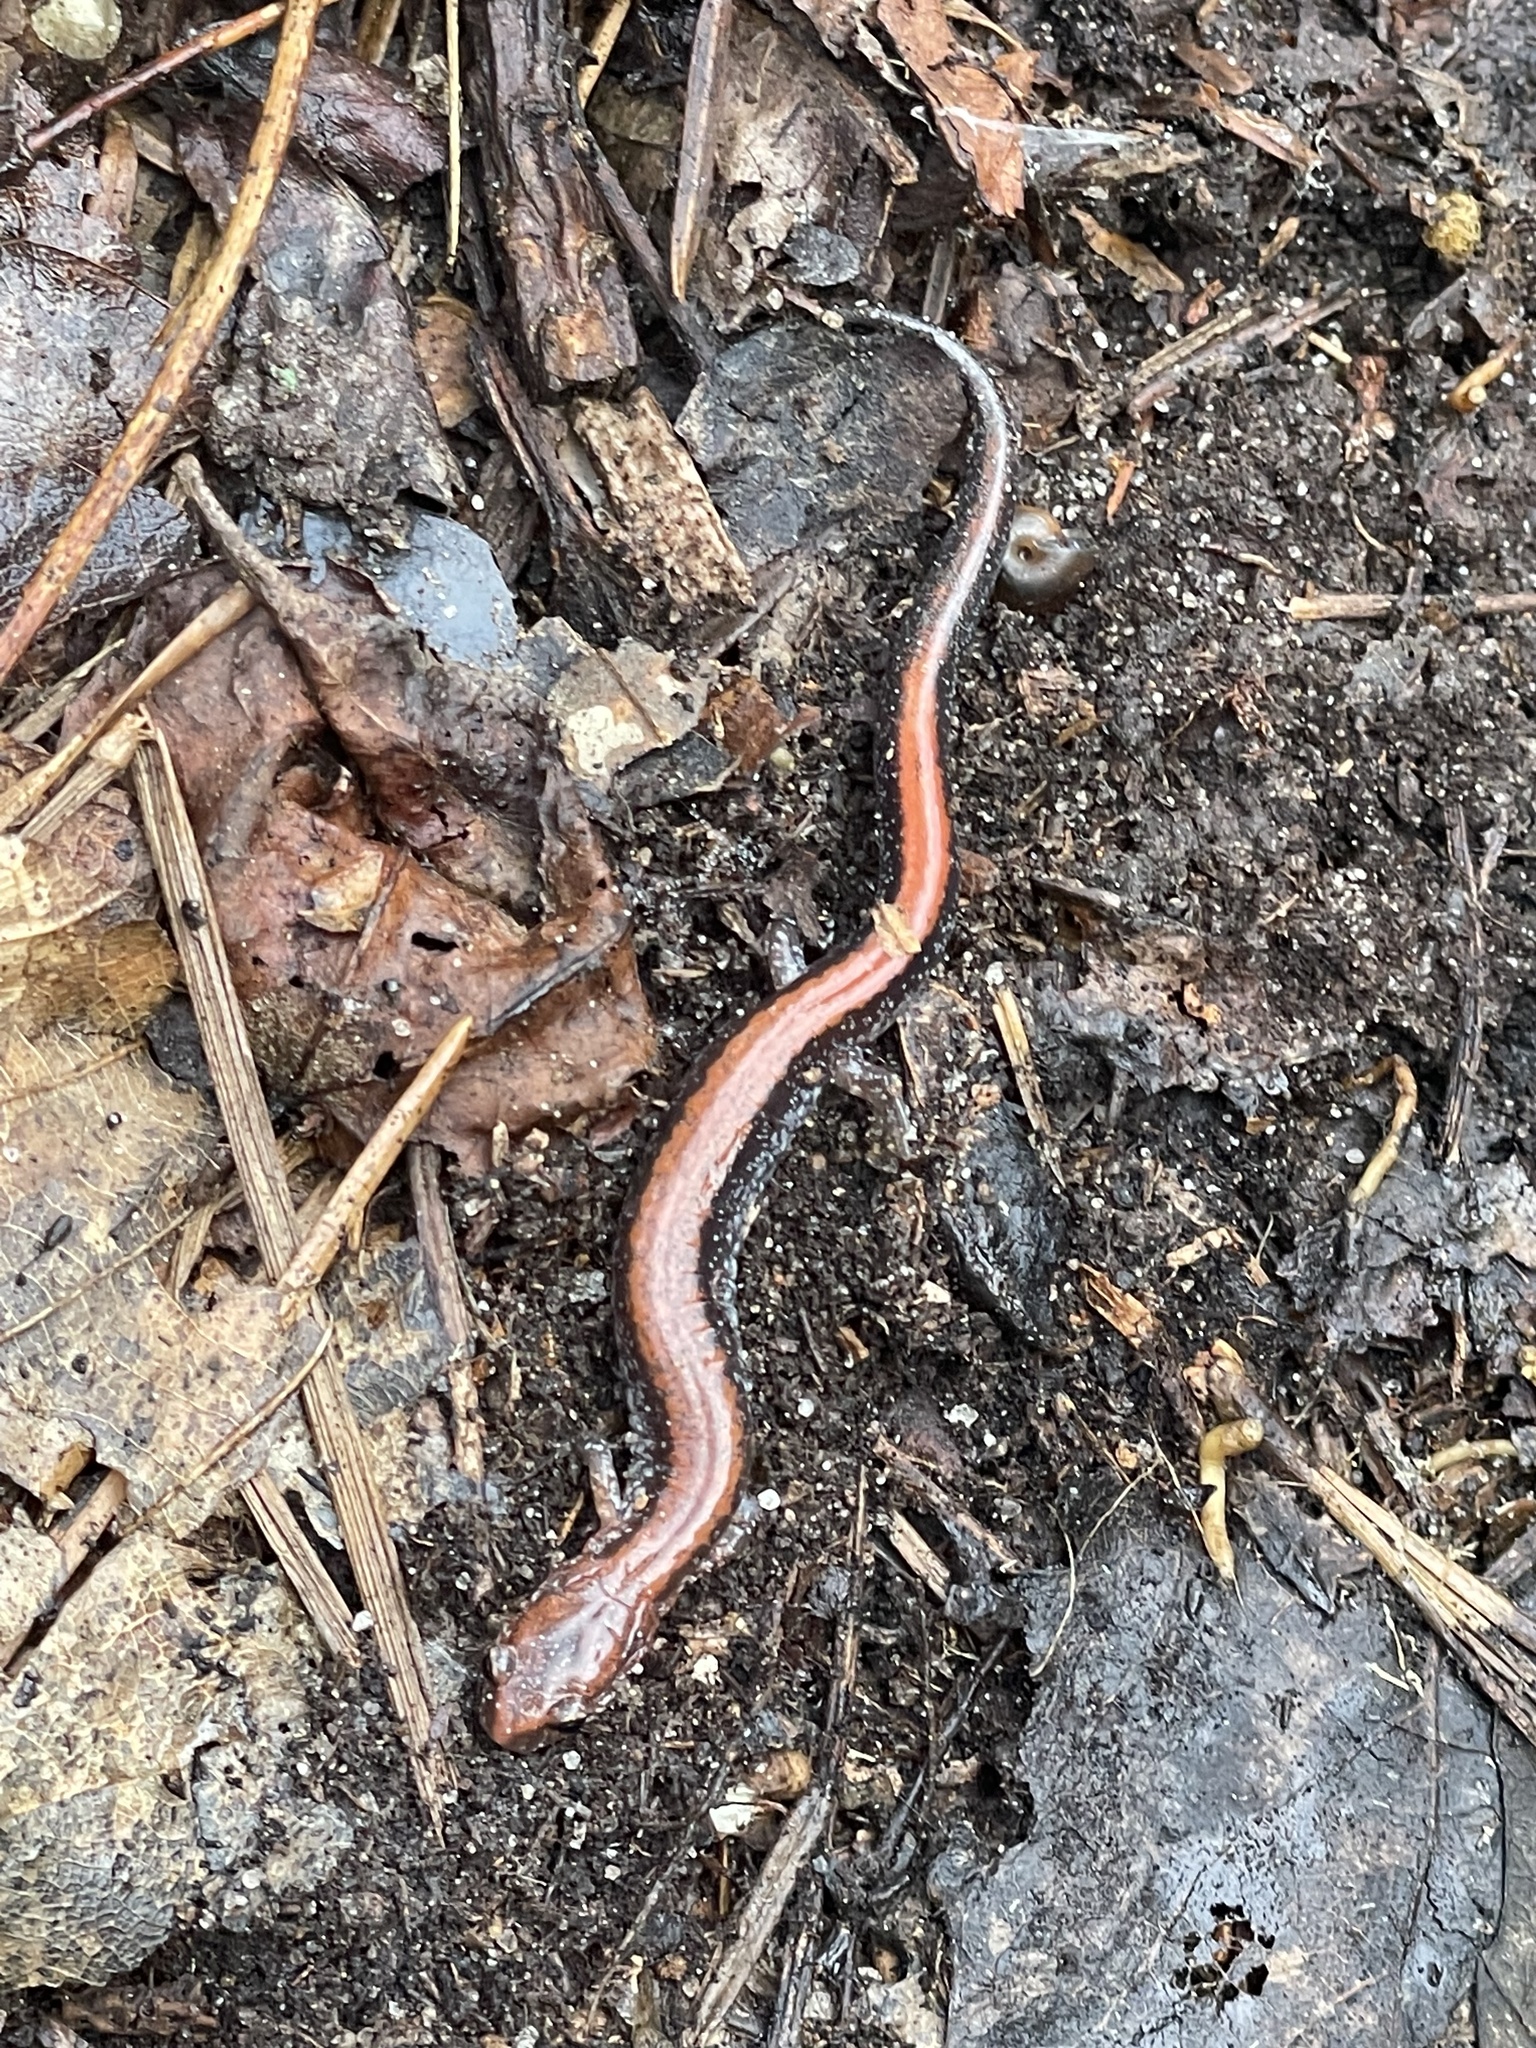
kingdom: Animalia
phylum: Chordata
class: Amphibia
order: Caudata
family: Plethodontidae
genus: Plethodon
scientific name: Plethodon cinereus
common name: Redback salamander
